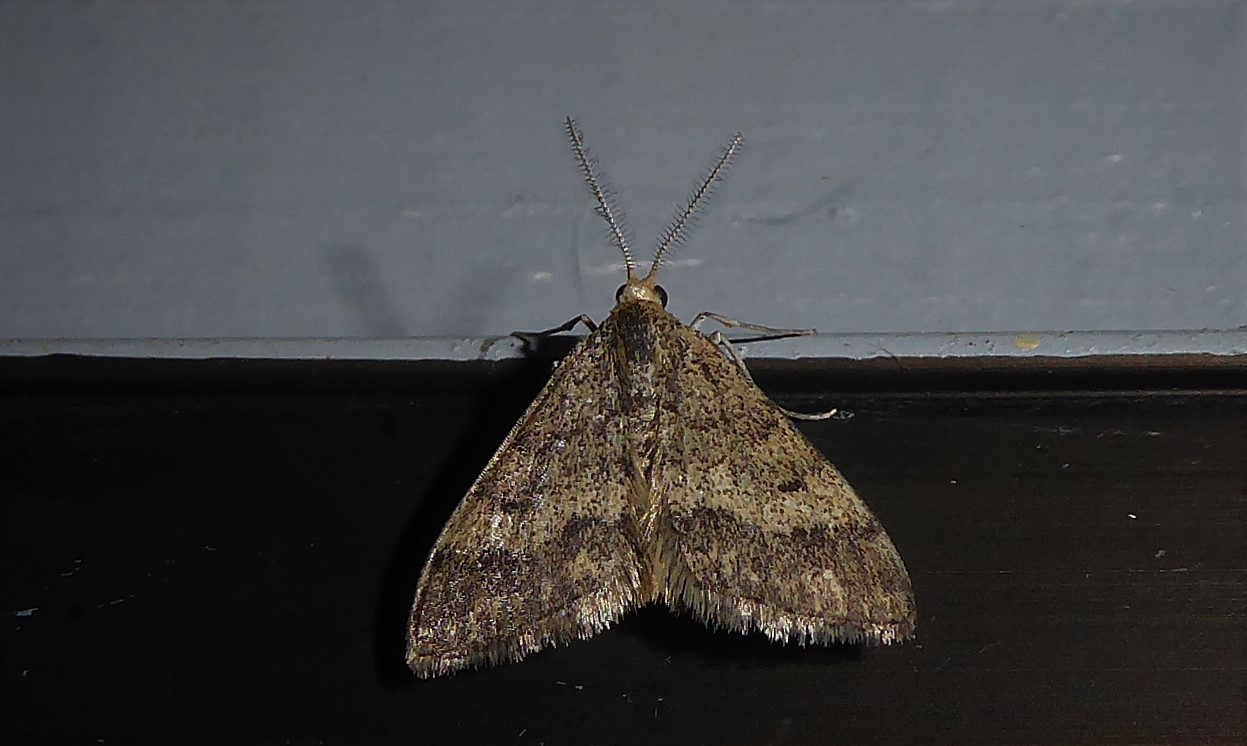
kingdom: Animalia
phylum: Arthropoda
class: Insecta
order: Lepidoptera
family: Geometridae
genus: Scopula
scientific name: Scopula rubraria
